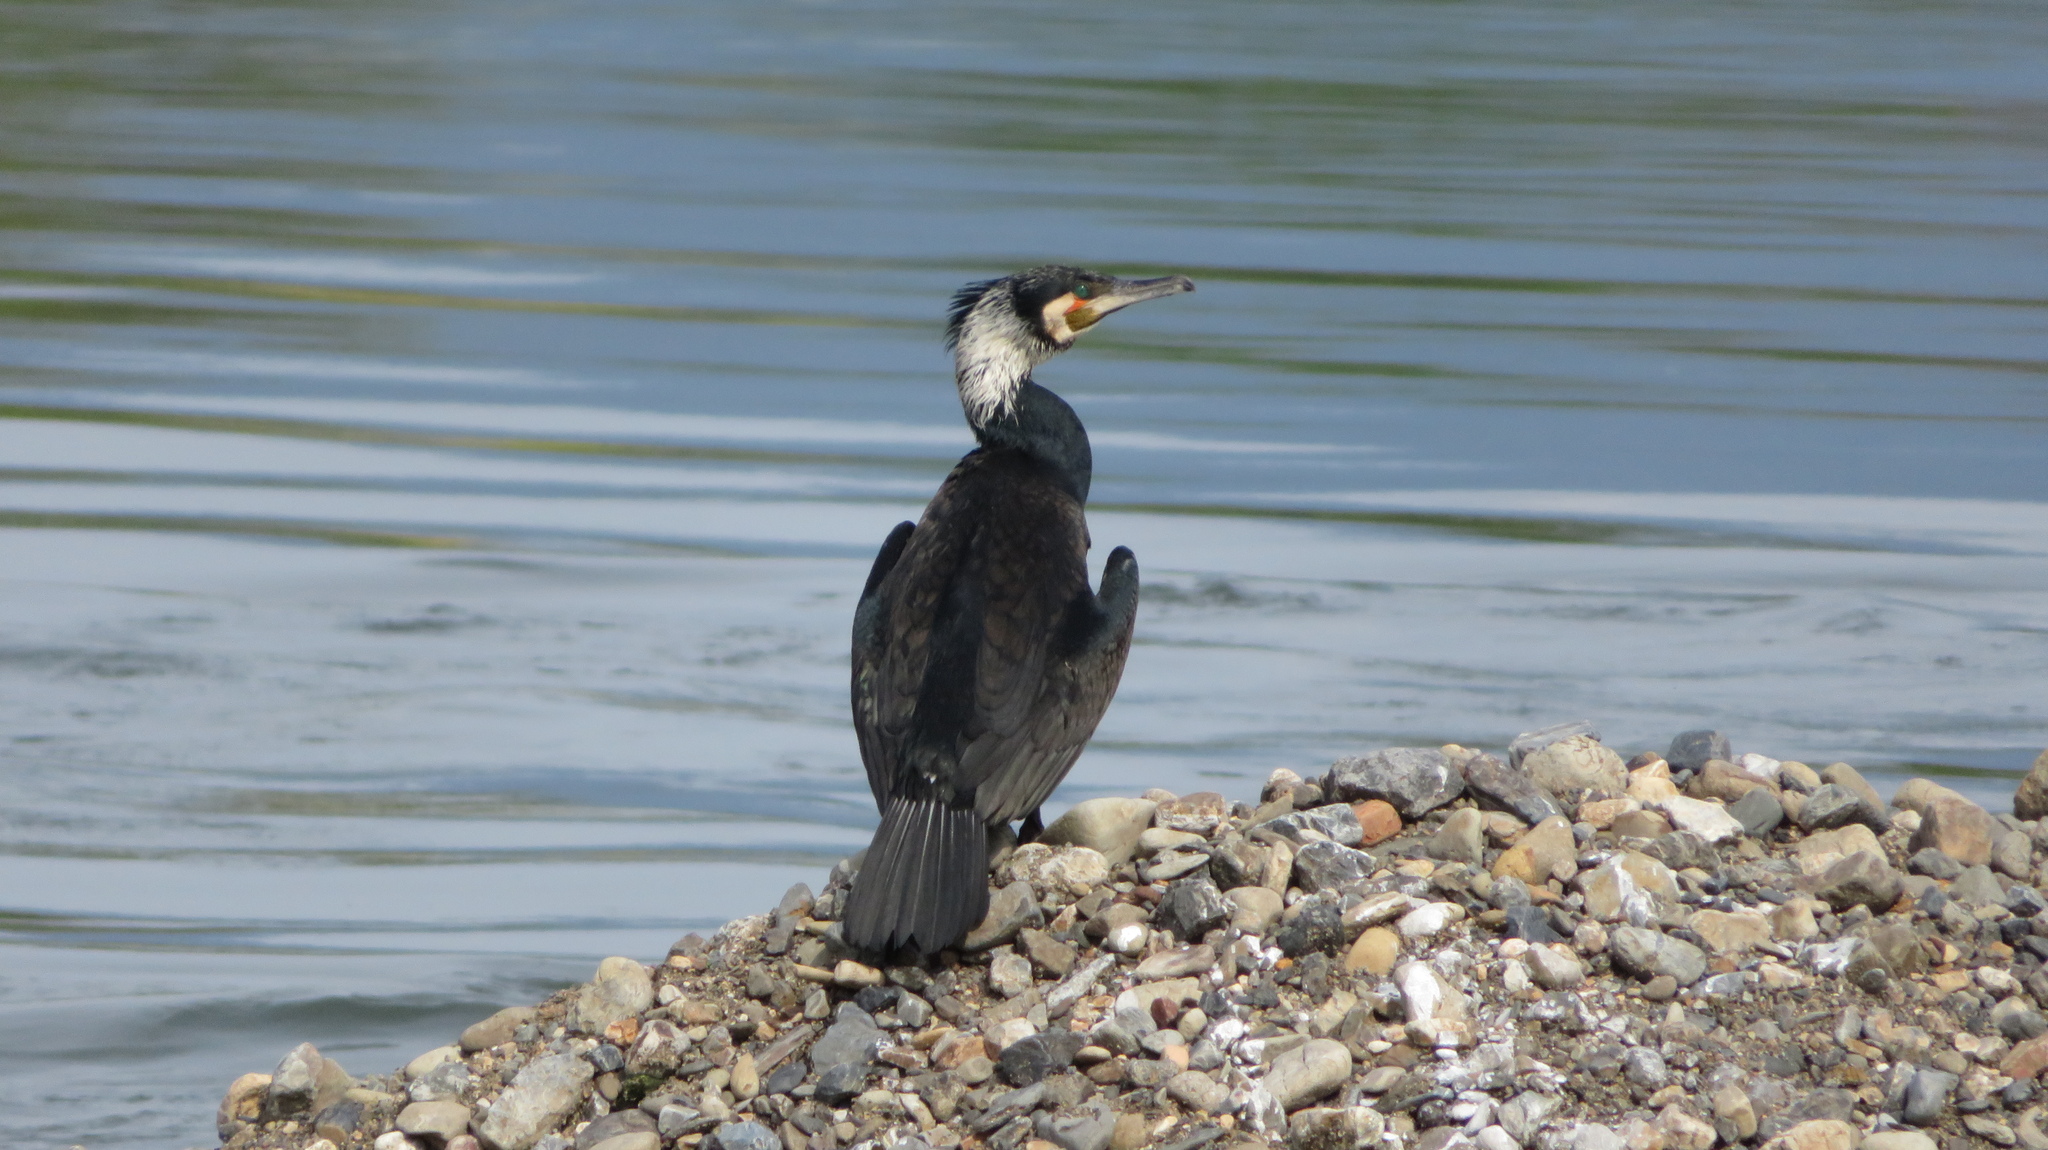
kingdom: Animalia
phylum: Chordata
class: Aves
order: Suliformes
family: Phalacrocoracidae
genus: Phalacrocorax
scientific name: Phalacrocorax carbo
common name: Great cormorant
